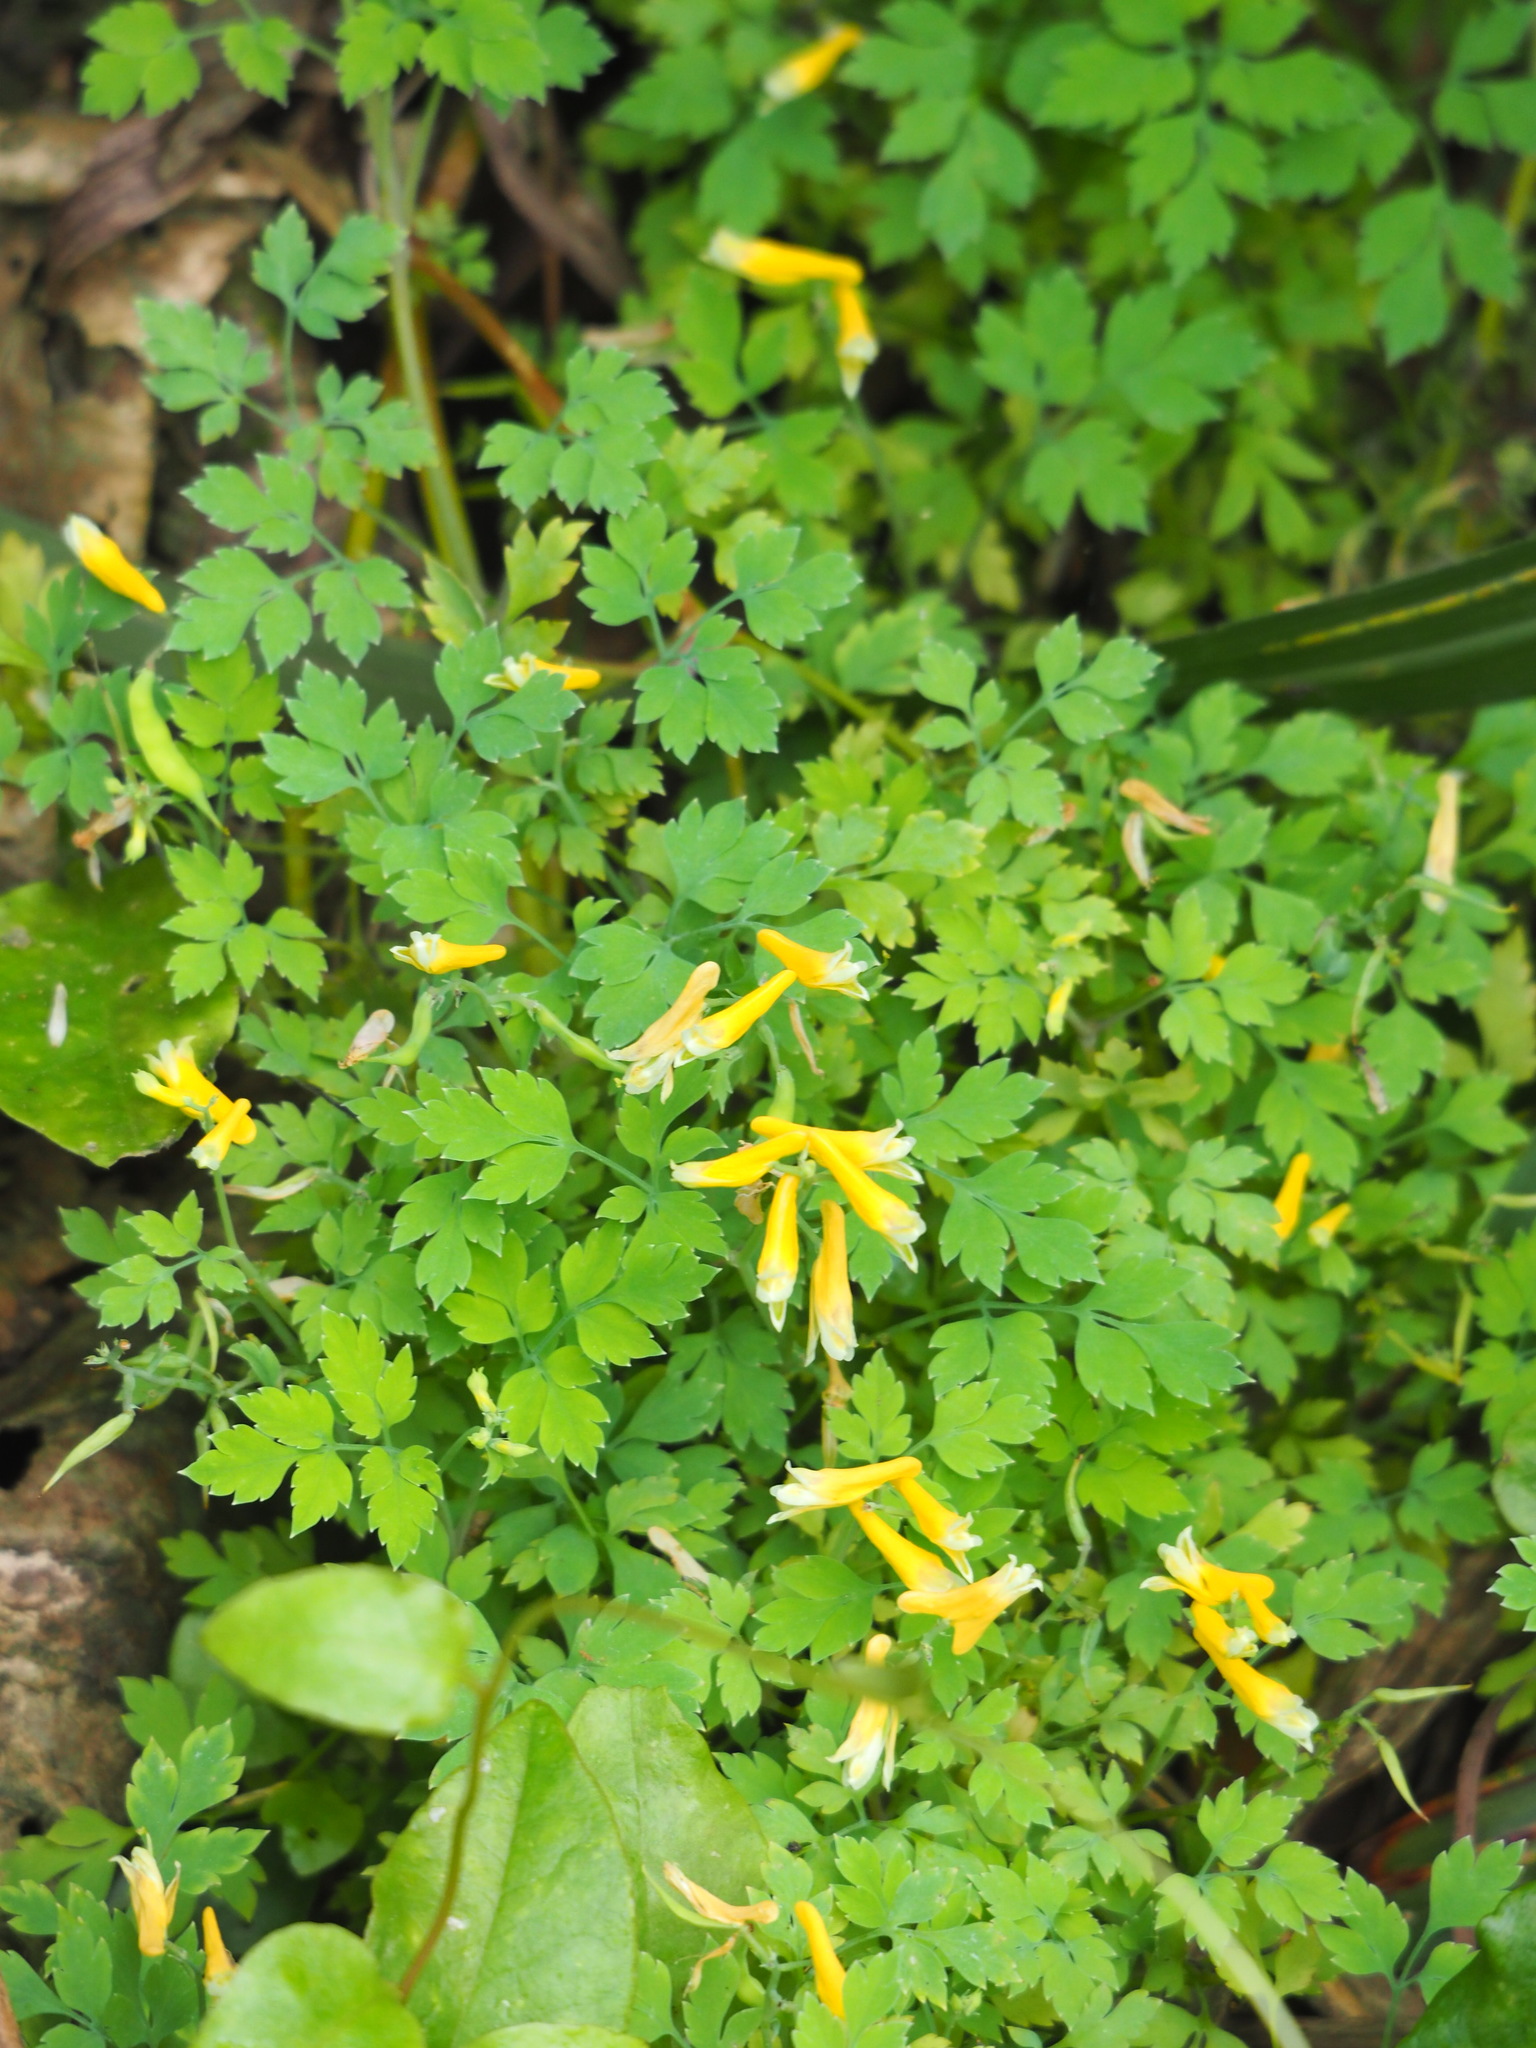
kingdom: Plantae
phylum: Tracheophyta
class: Magnoliopsida
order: Ranunculales
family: Papaveraceae
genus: Corydalis
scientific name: Corydalis balansae
